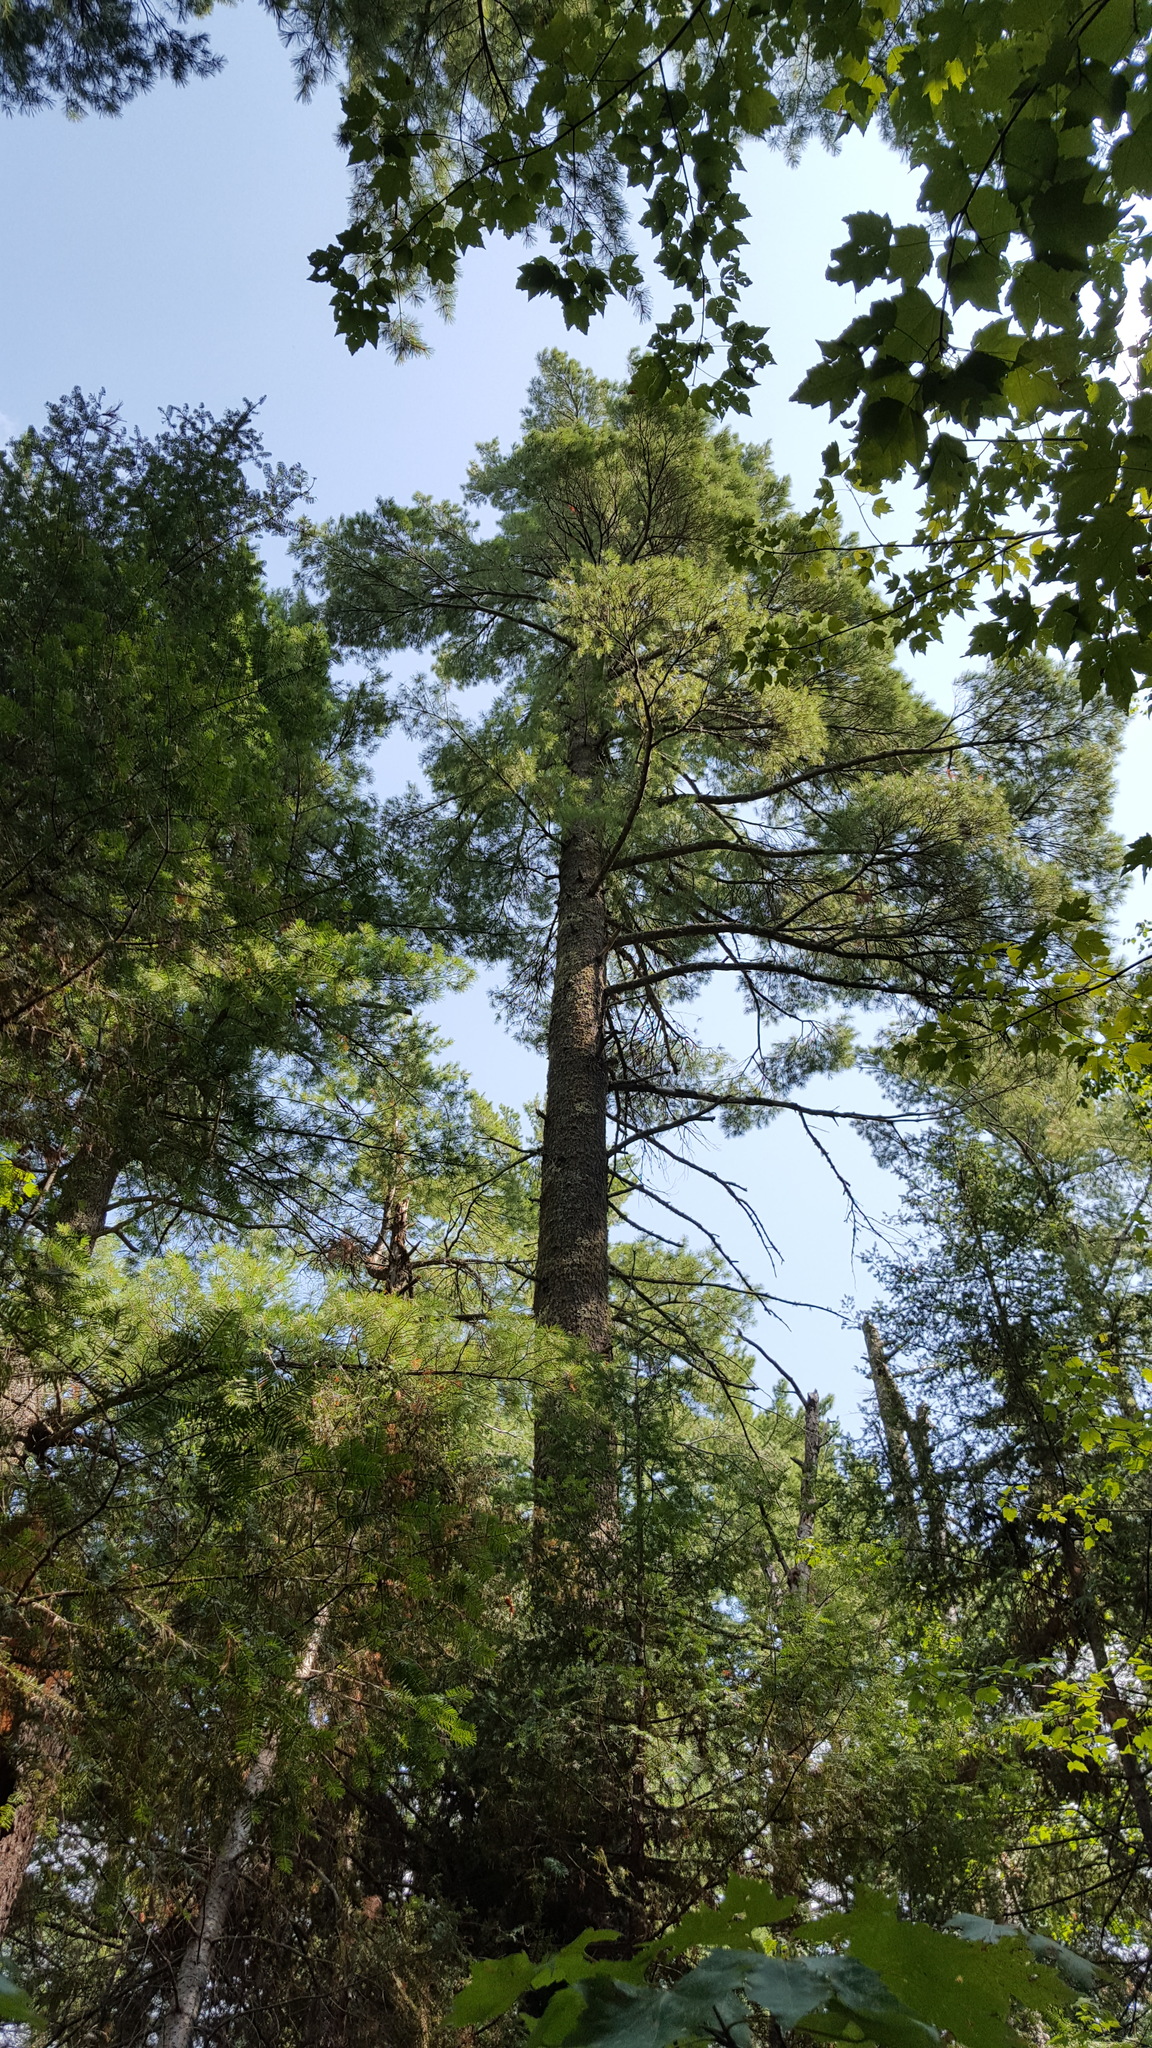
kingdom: Plantae
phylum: Tracheophyta
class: Pinopsida
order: Pinales
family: Pinaceae
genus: Pinus
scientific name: Pinus strobus
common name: Weymouth pine
